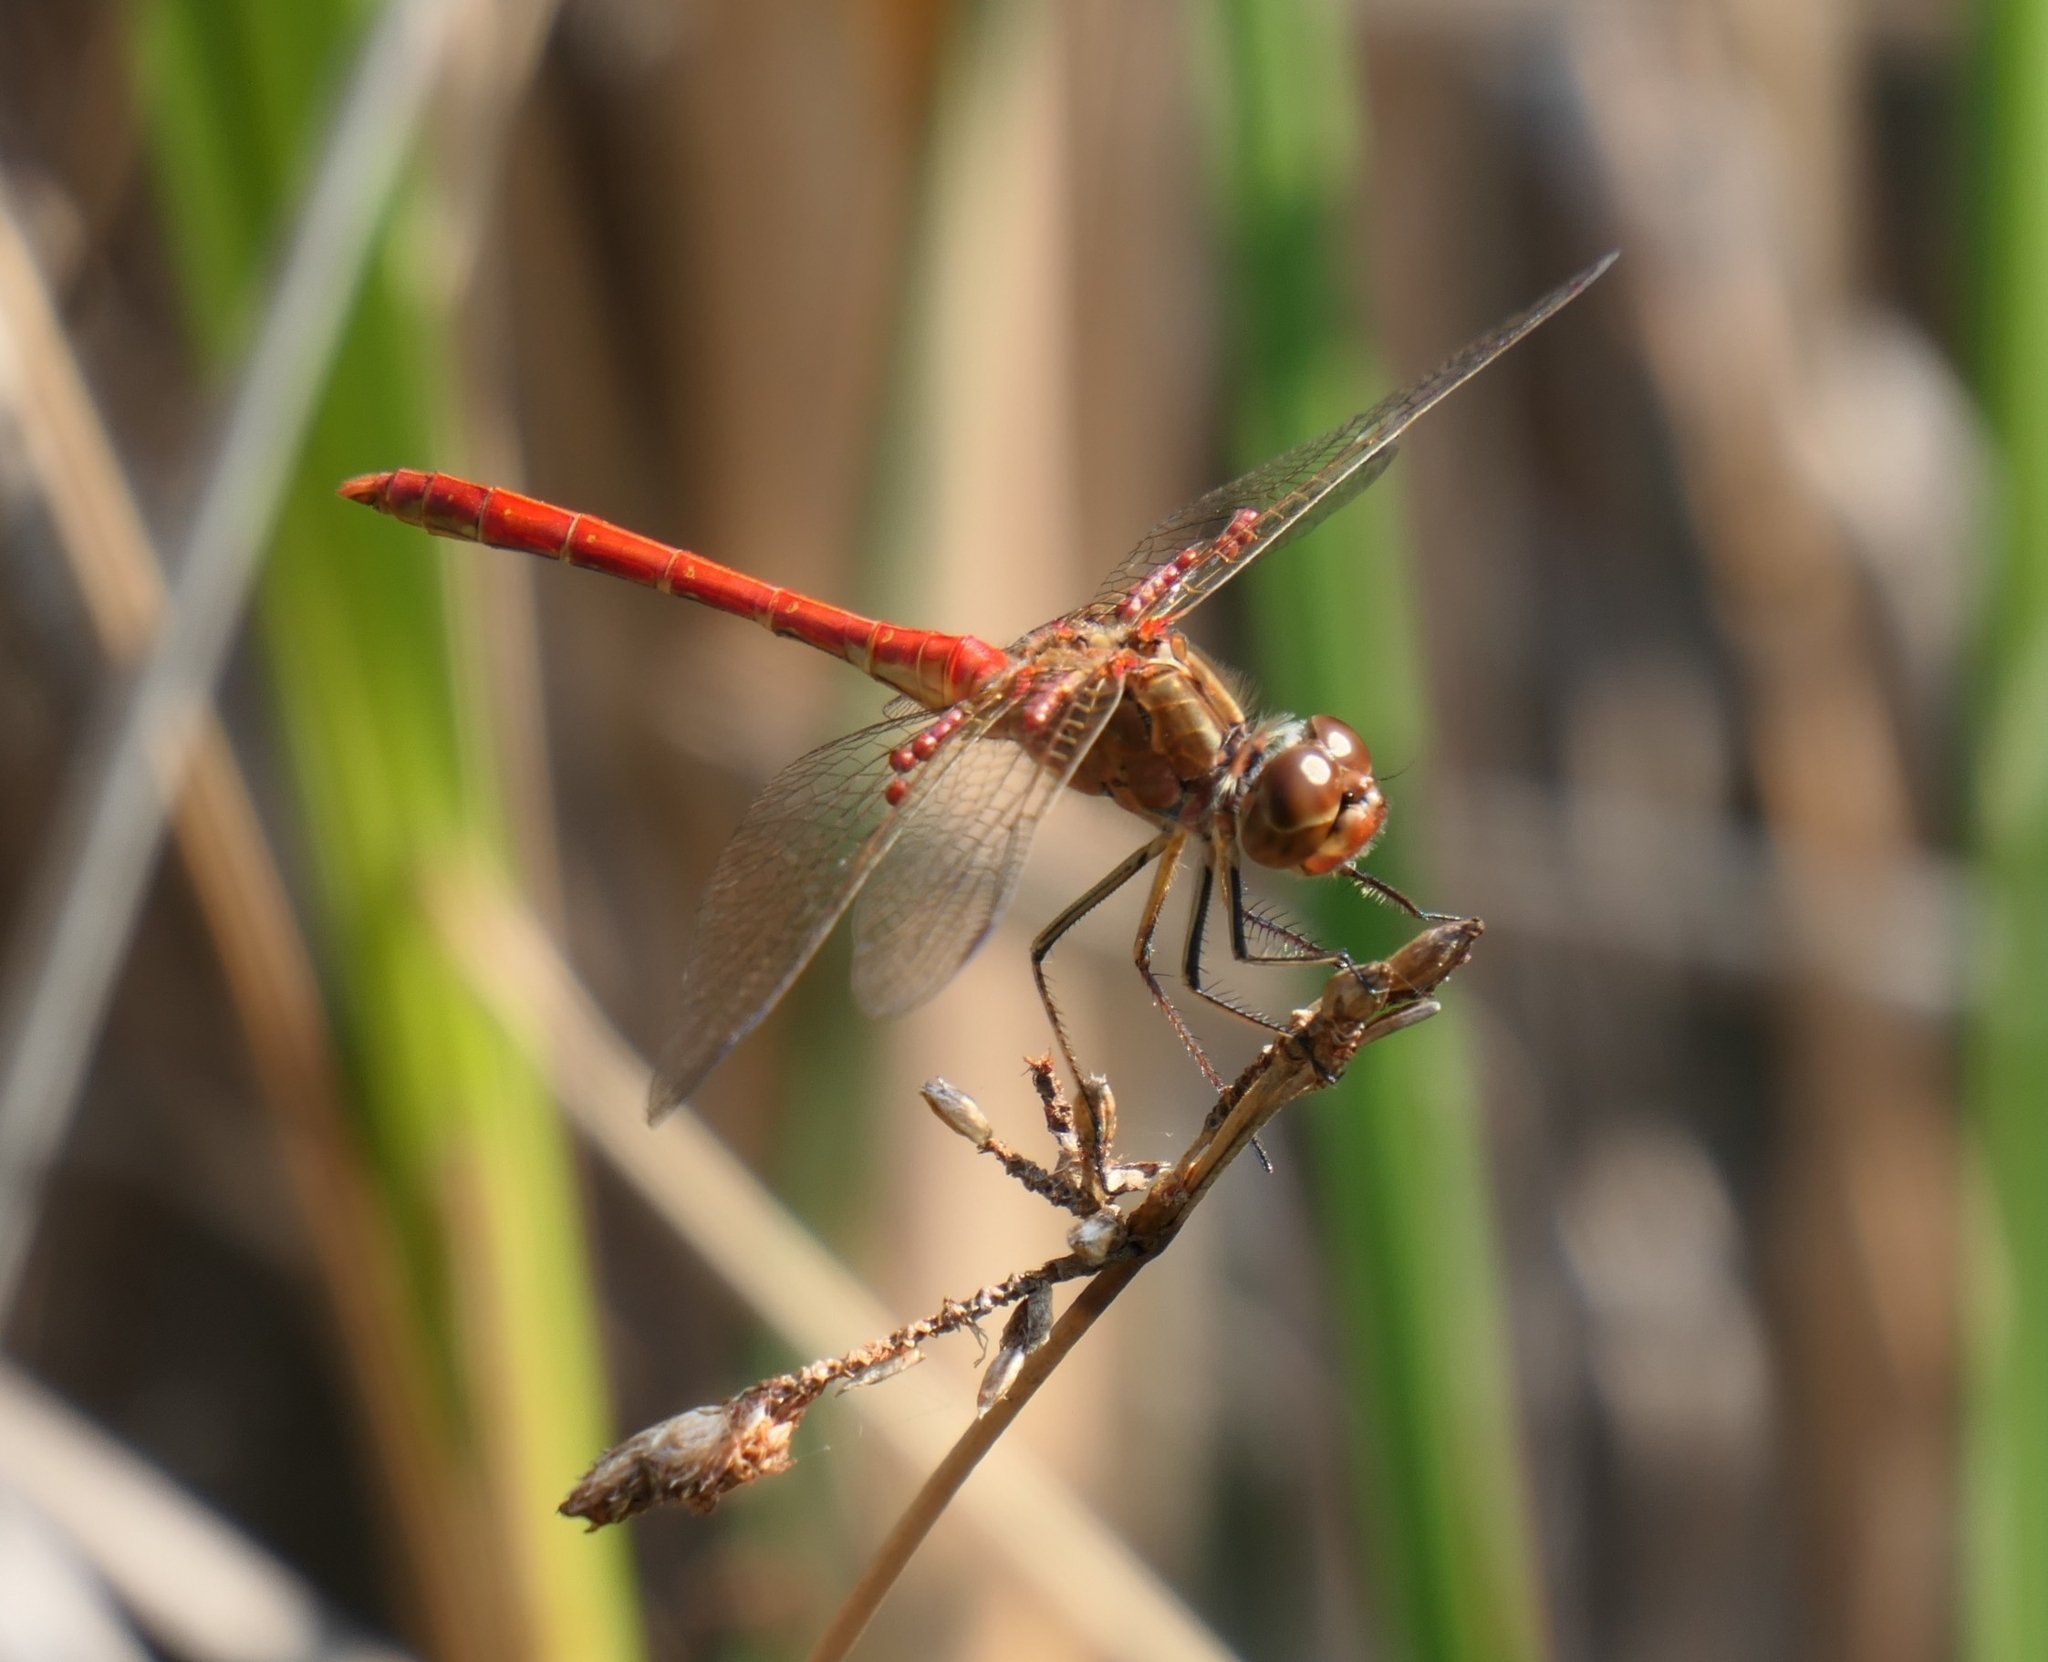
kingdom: Animalia
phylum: Arthropoda
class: Insecta
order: Odonata
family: Libellulidae
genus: Sympetrum
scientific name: Sympetrum meridionale
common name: Southern darter
